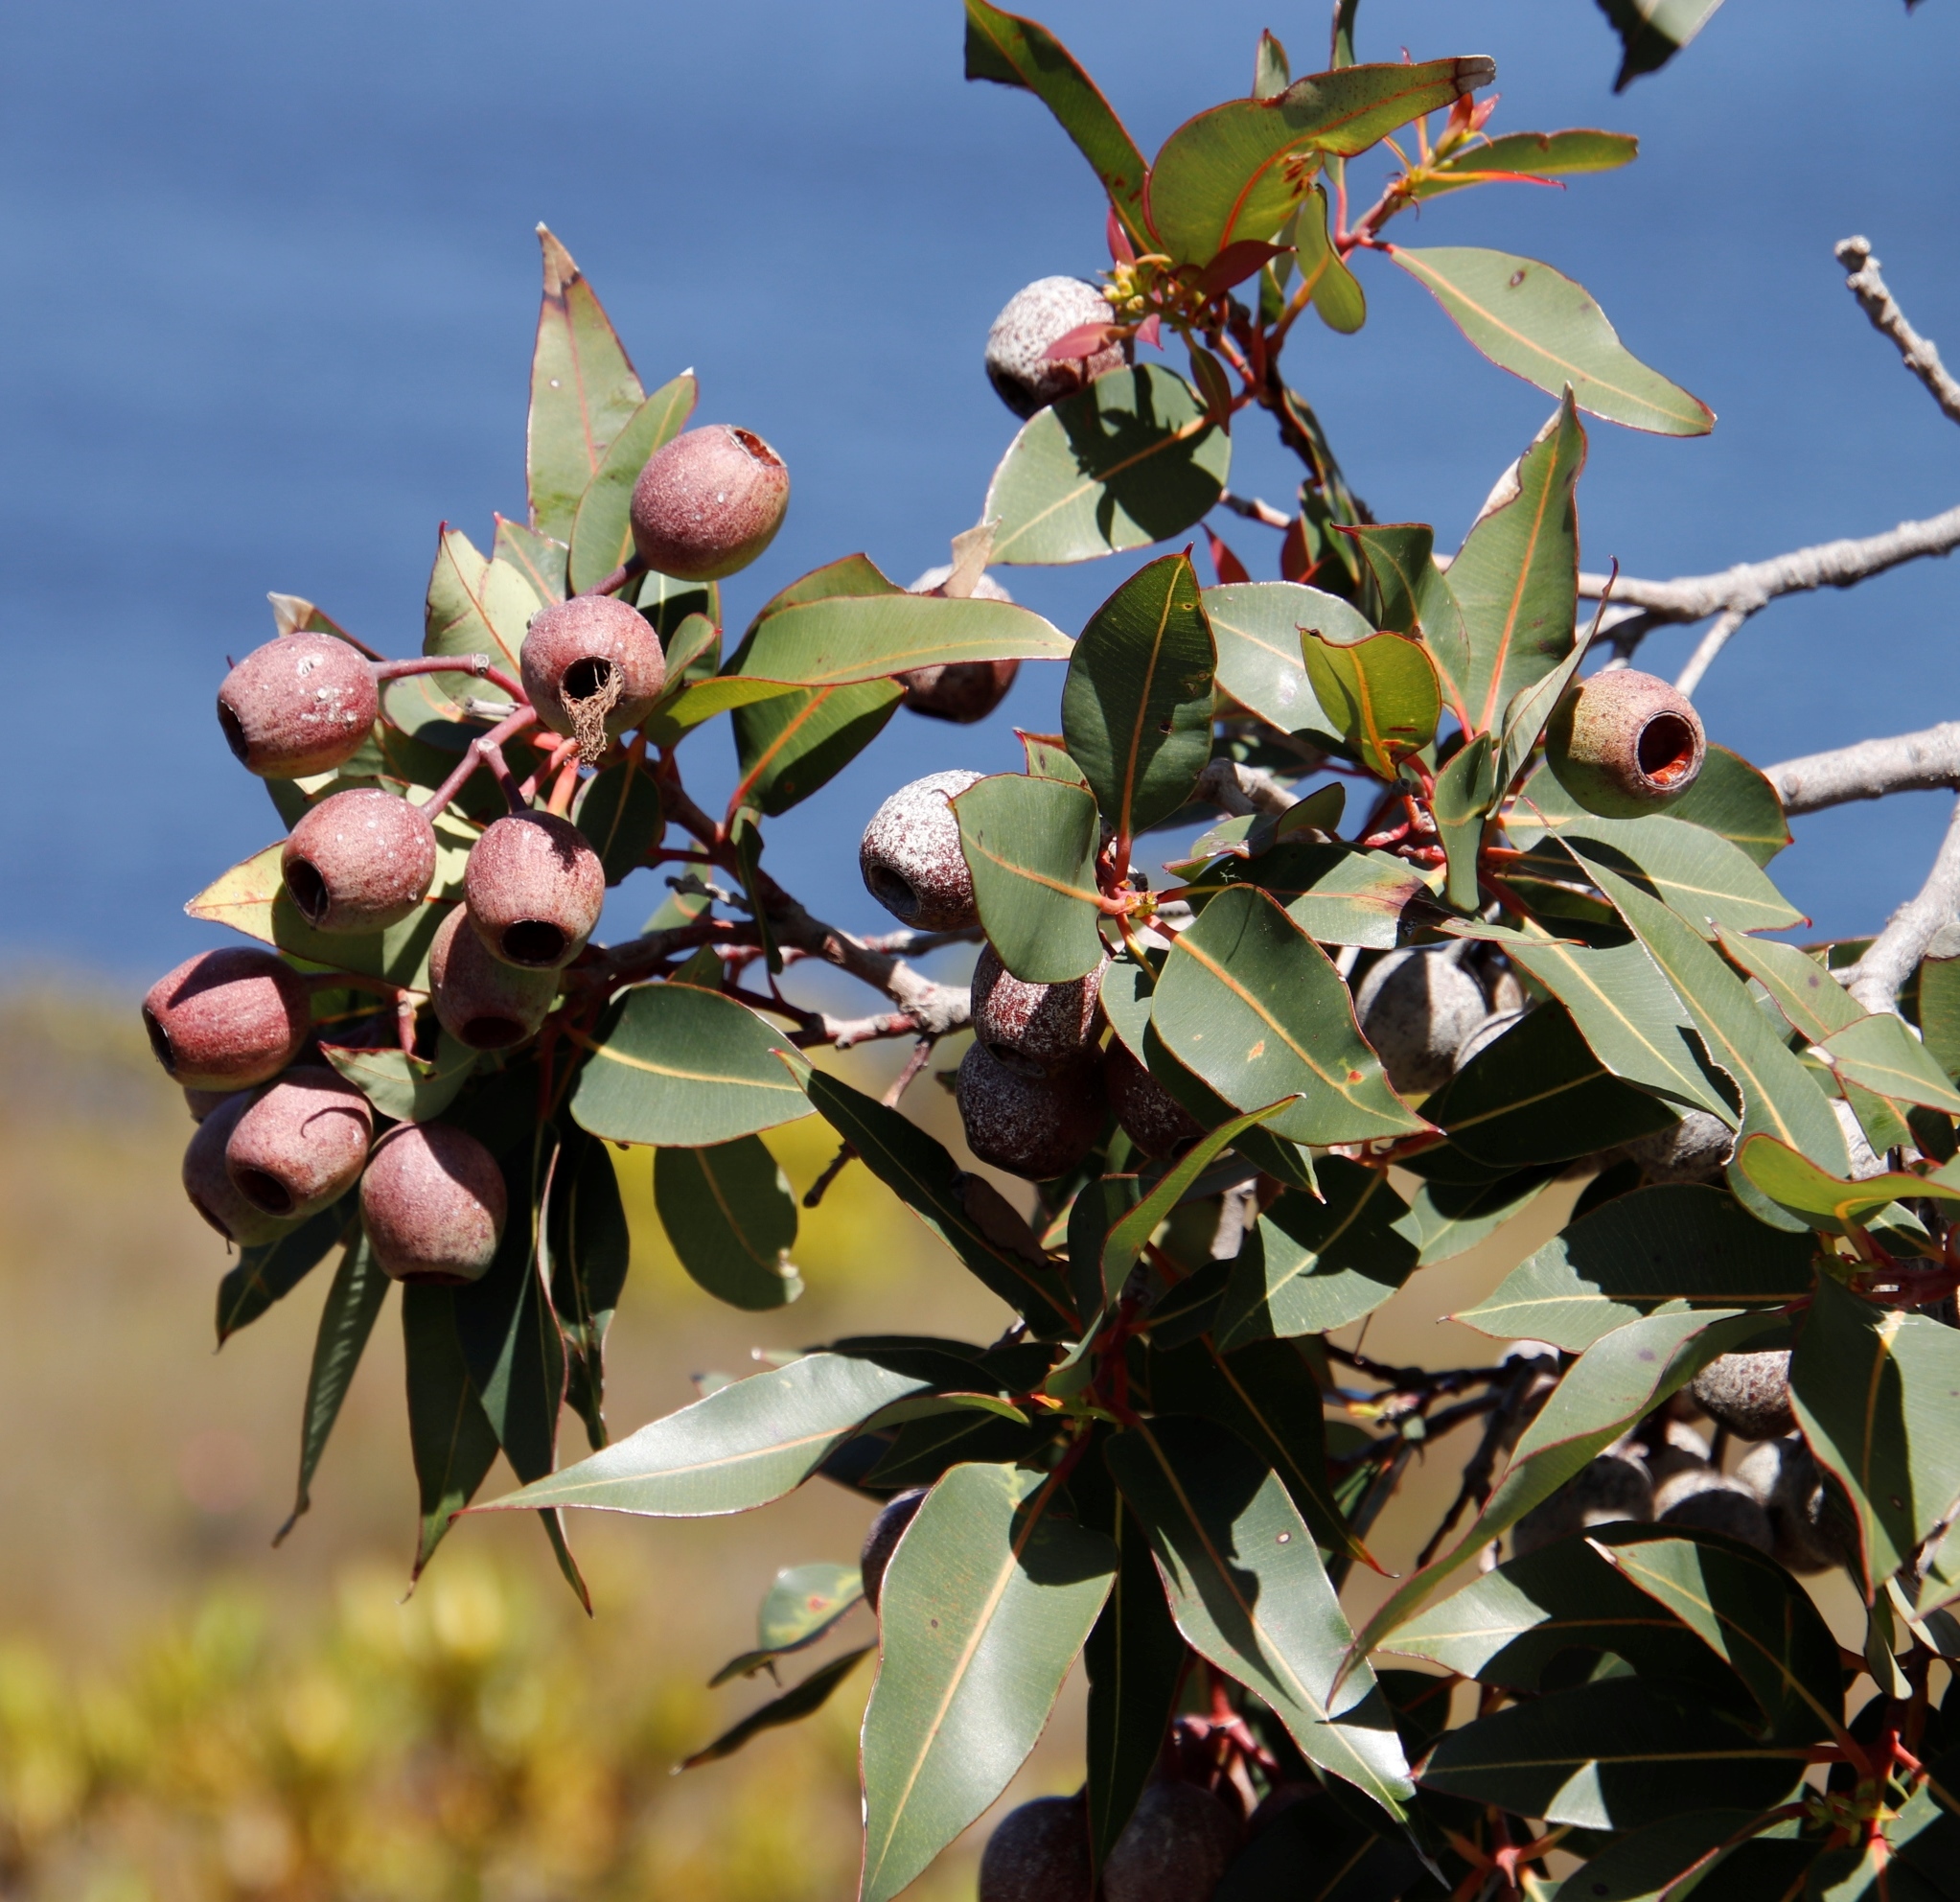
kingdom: Plantae
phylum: Tracheophyta
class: Magnoliopsida
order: Myrtales
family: Myrtaceae
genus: Corymbia
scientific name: Corymbia ficifolia
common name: Redflower gum
